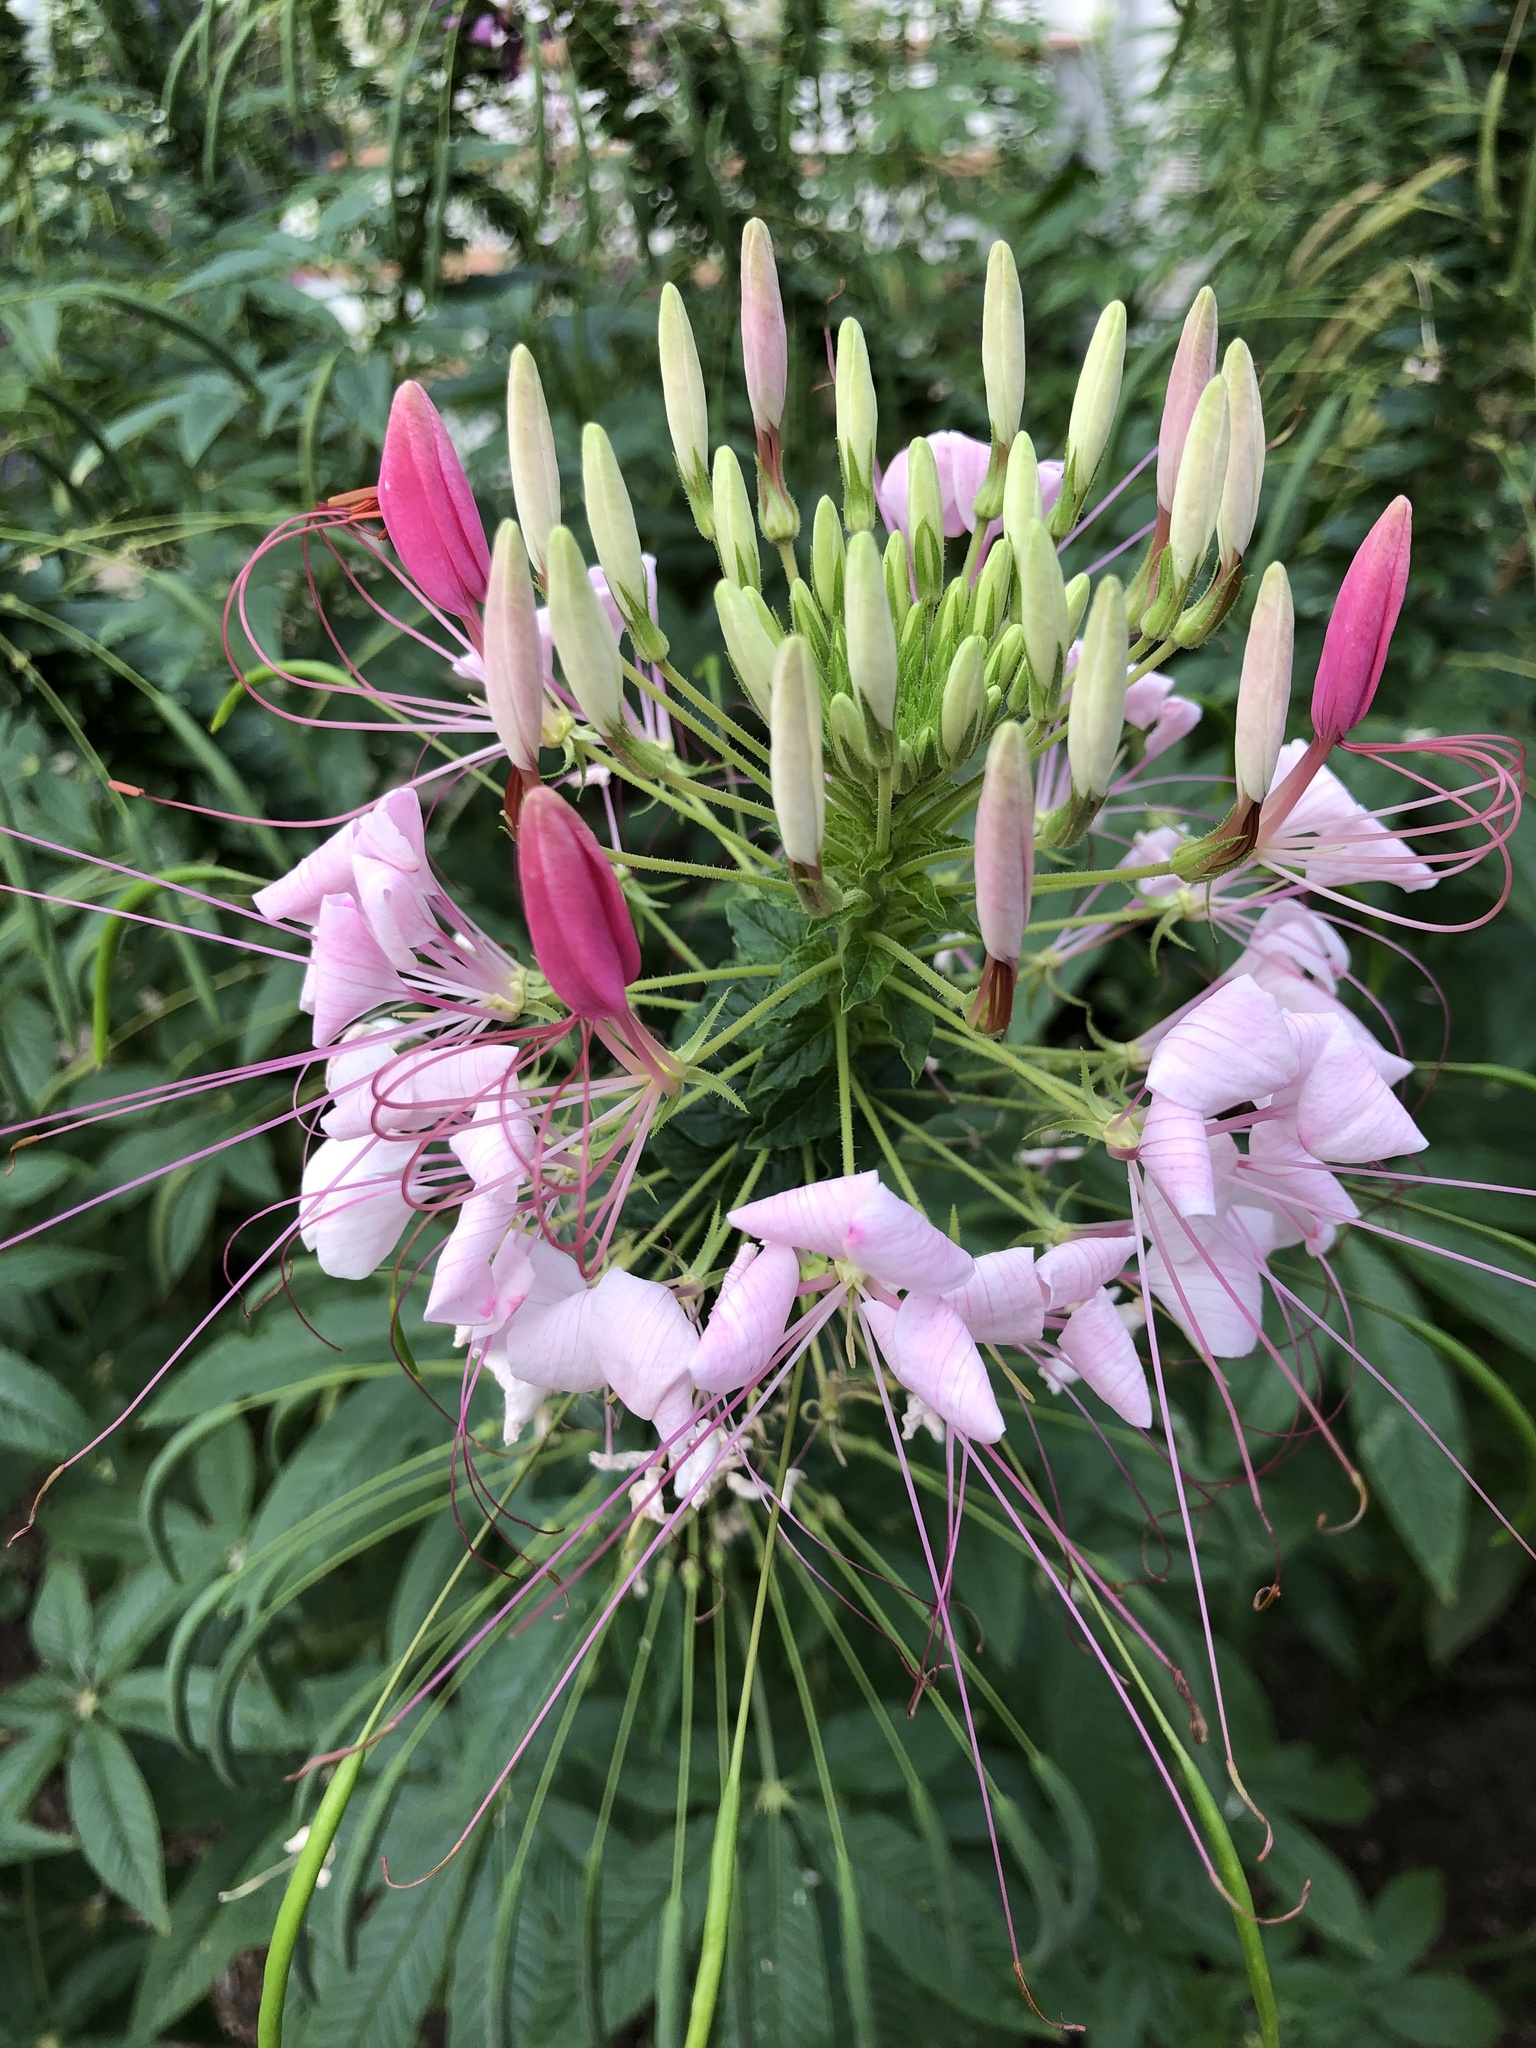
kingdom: Plantae
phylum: Tracheophyta
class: Magnoliopsida
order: Brassicales
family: Cleomaceae
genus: Tarenaya
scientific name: Tarenaya houtteana
